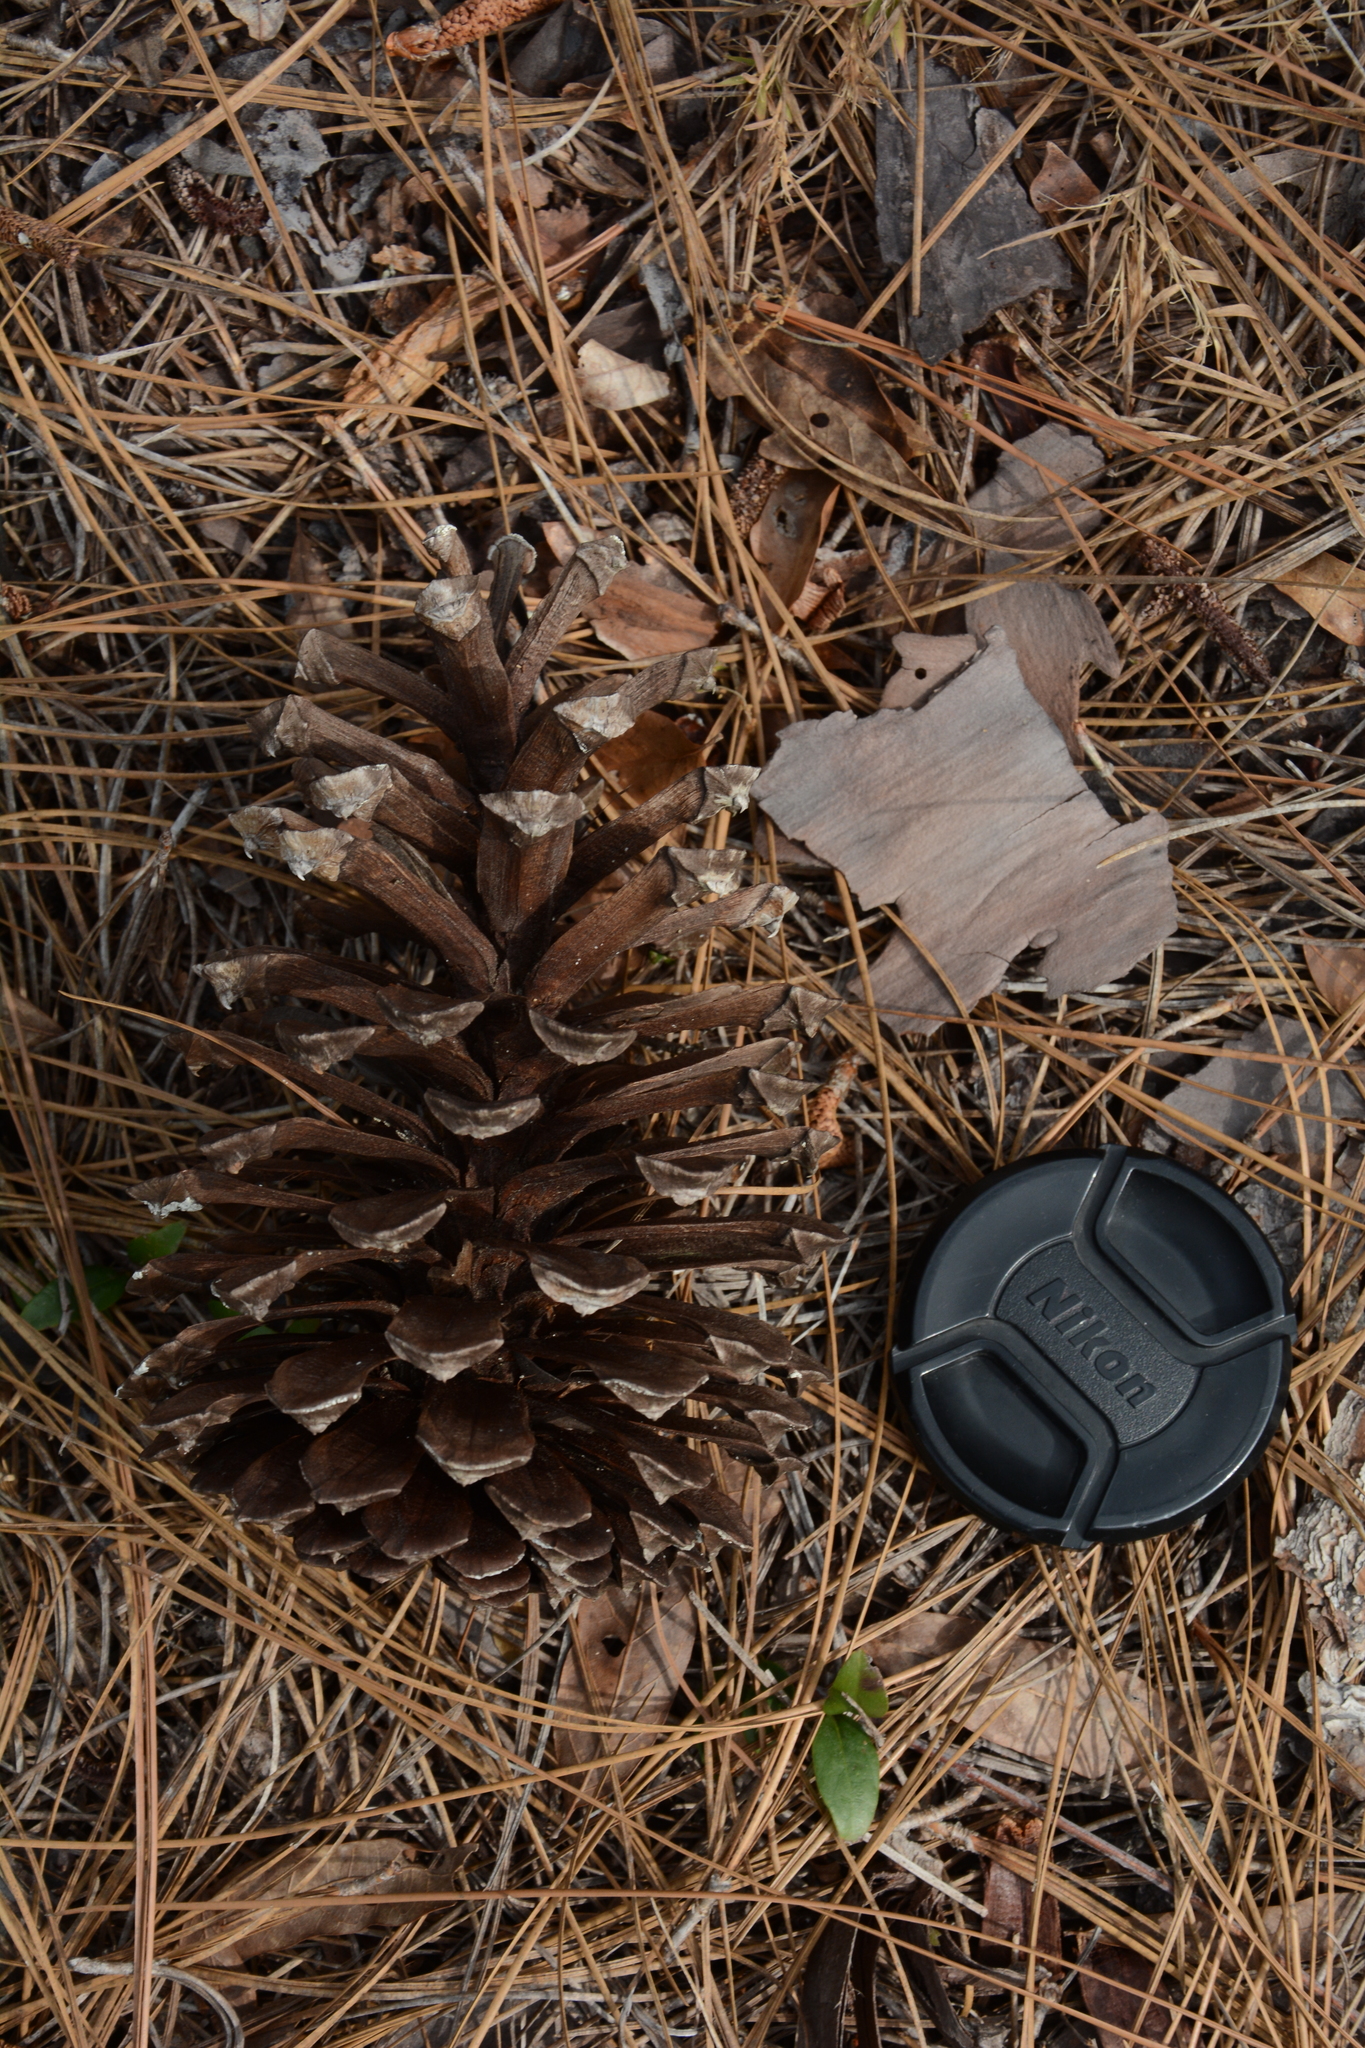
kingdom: Plantae
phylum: Tracheophyta
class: Pinopsida
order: Pinales
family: Pinaceae
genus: Pinus
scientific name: Pinus palustris
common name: Longleaf pine
